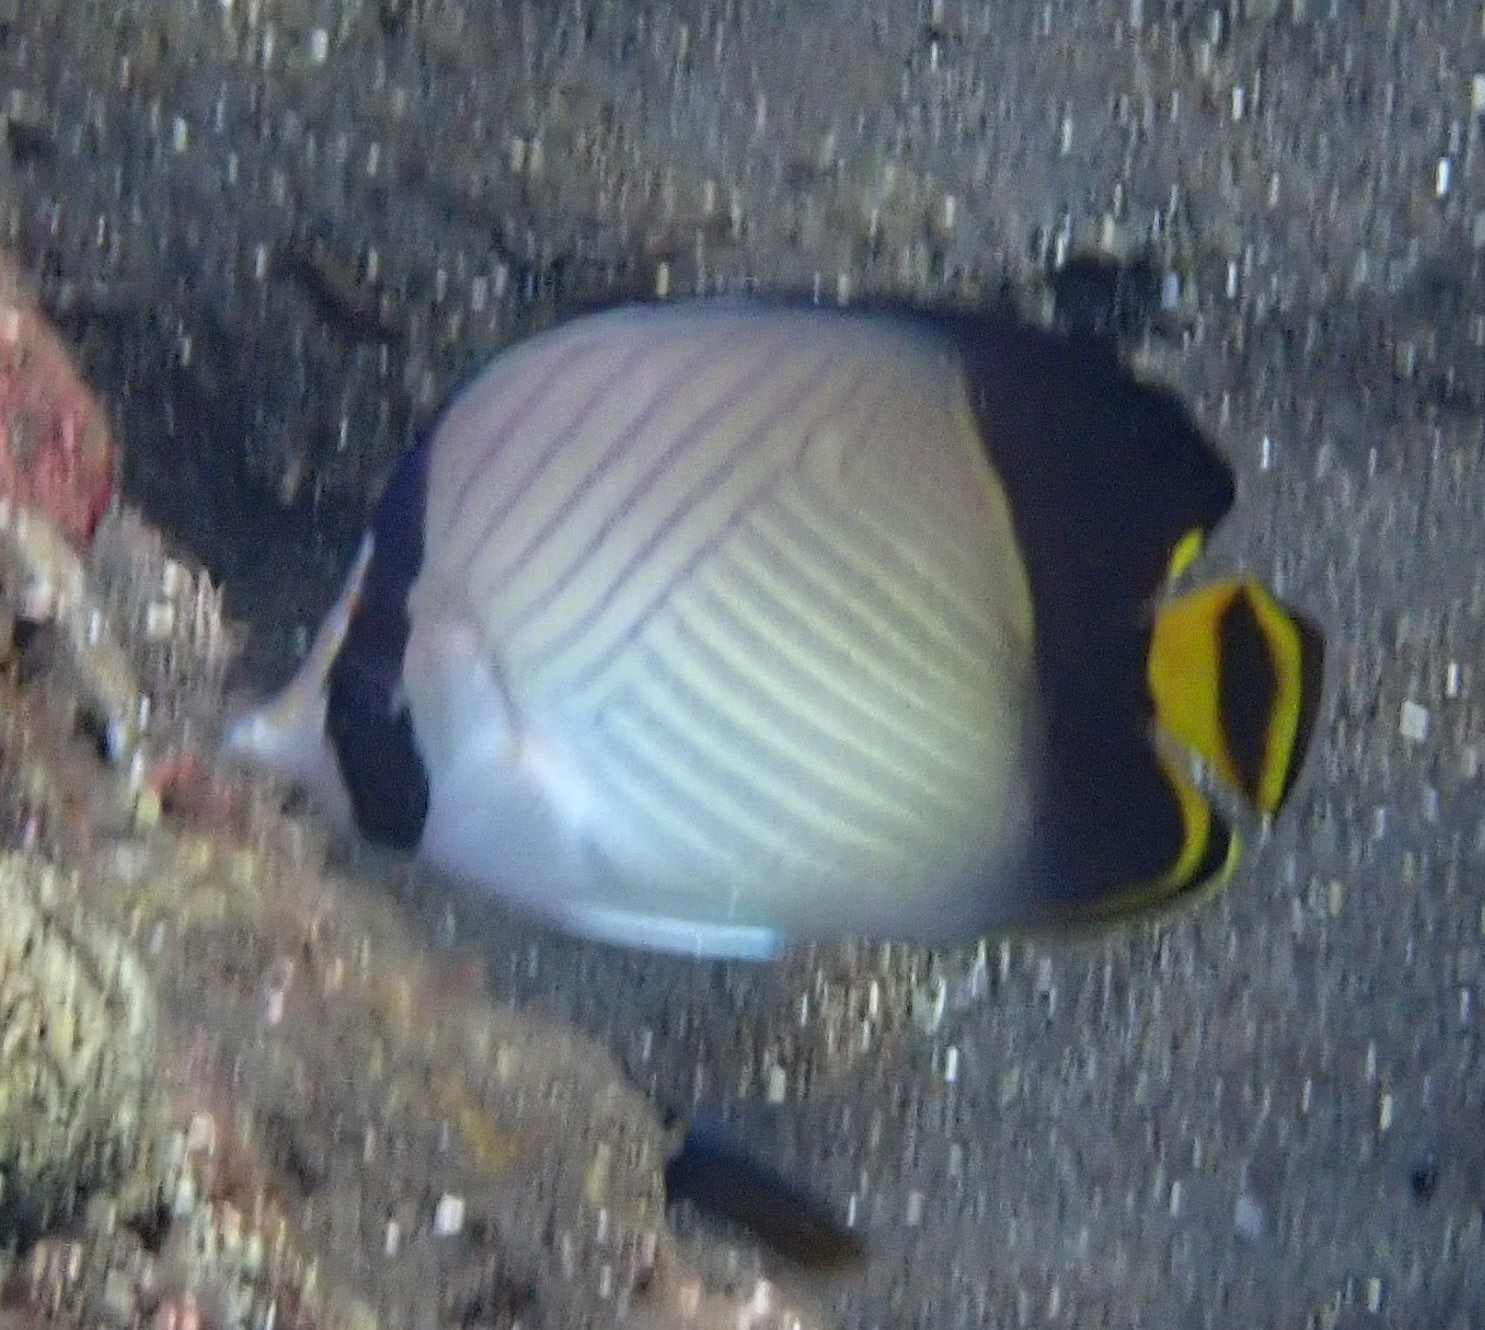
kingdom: Animalia
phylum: Chordata
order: Perciformes
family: Chaetodontidae
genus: Chaetodon
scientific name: Chaetodon decussatus
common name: Indian vagabond butterflyfish
